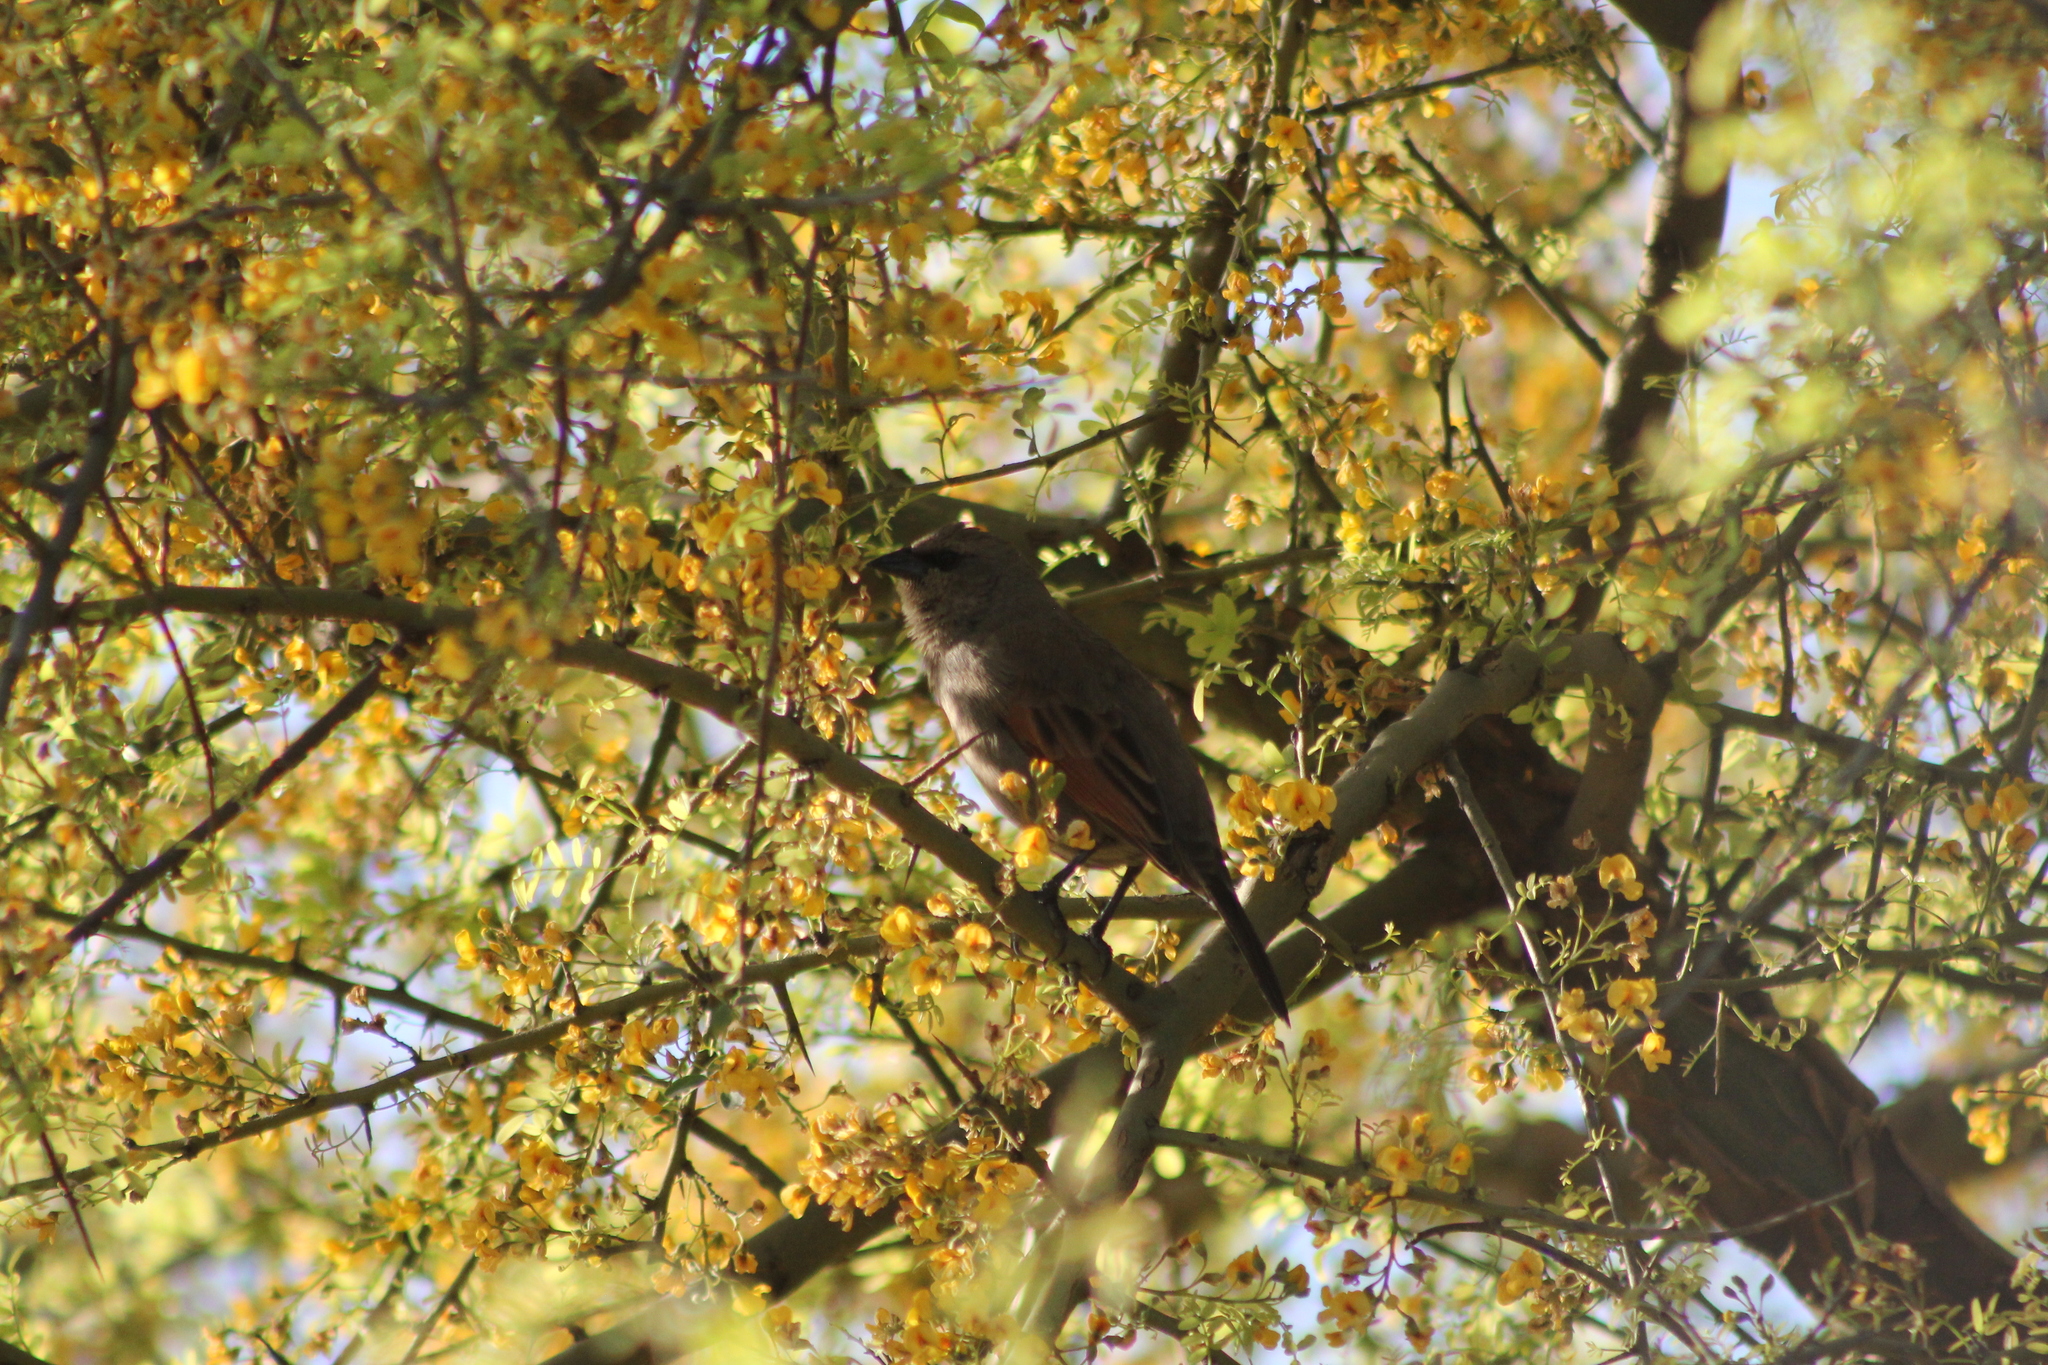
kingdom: Animalia
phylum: Chordata
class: Aves
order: Passeriformes
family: Icteridae
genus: Agelaioides
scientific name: Agelaioides badius
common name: Baywing
